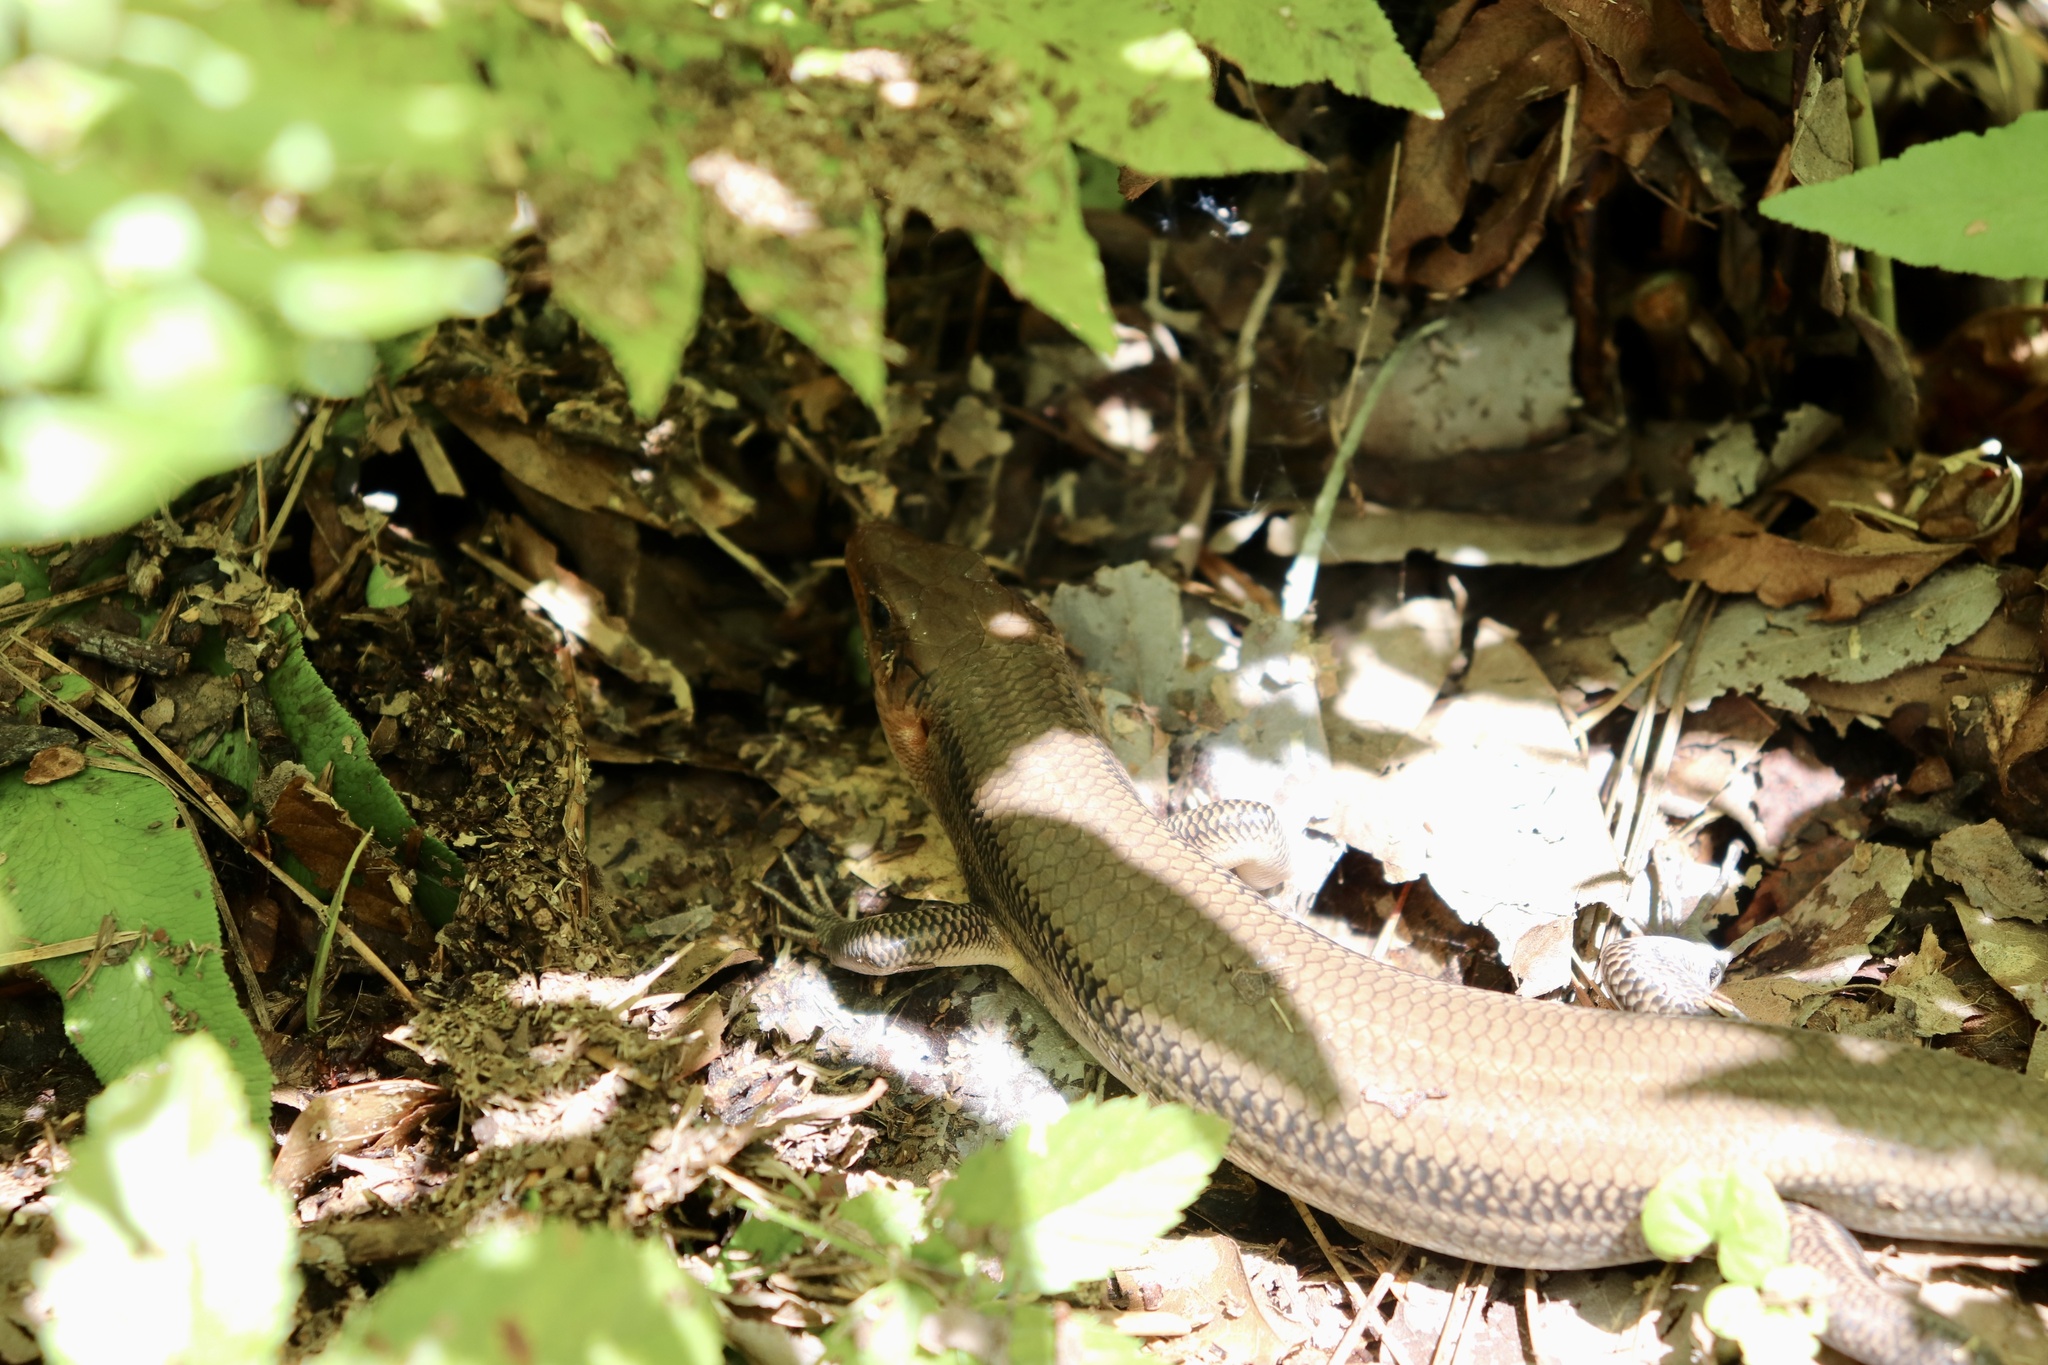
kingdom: Animalia
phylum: Chordata
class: Squamata
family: Scincidae
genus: Plestiodon
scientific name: Plestiodon laticeps
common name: Broadhead skink
